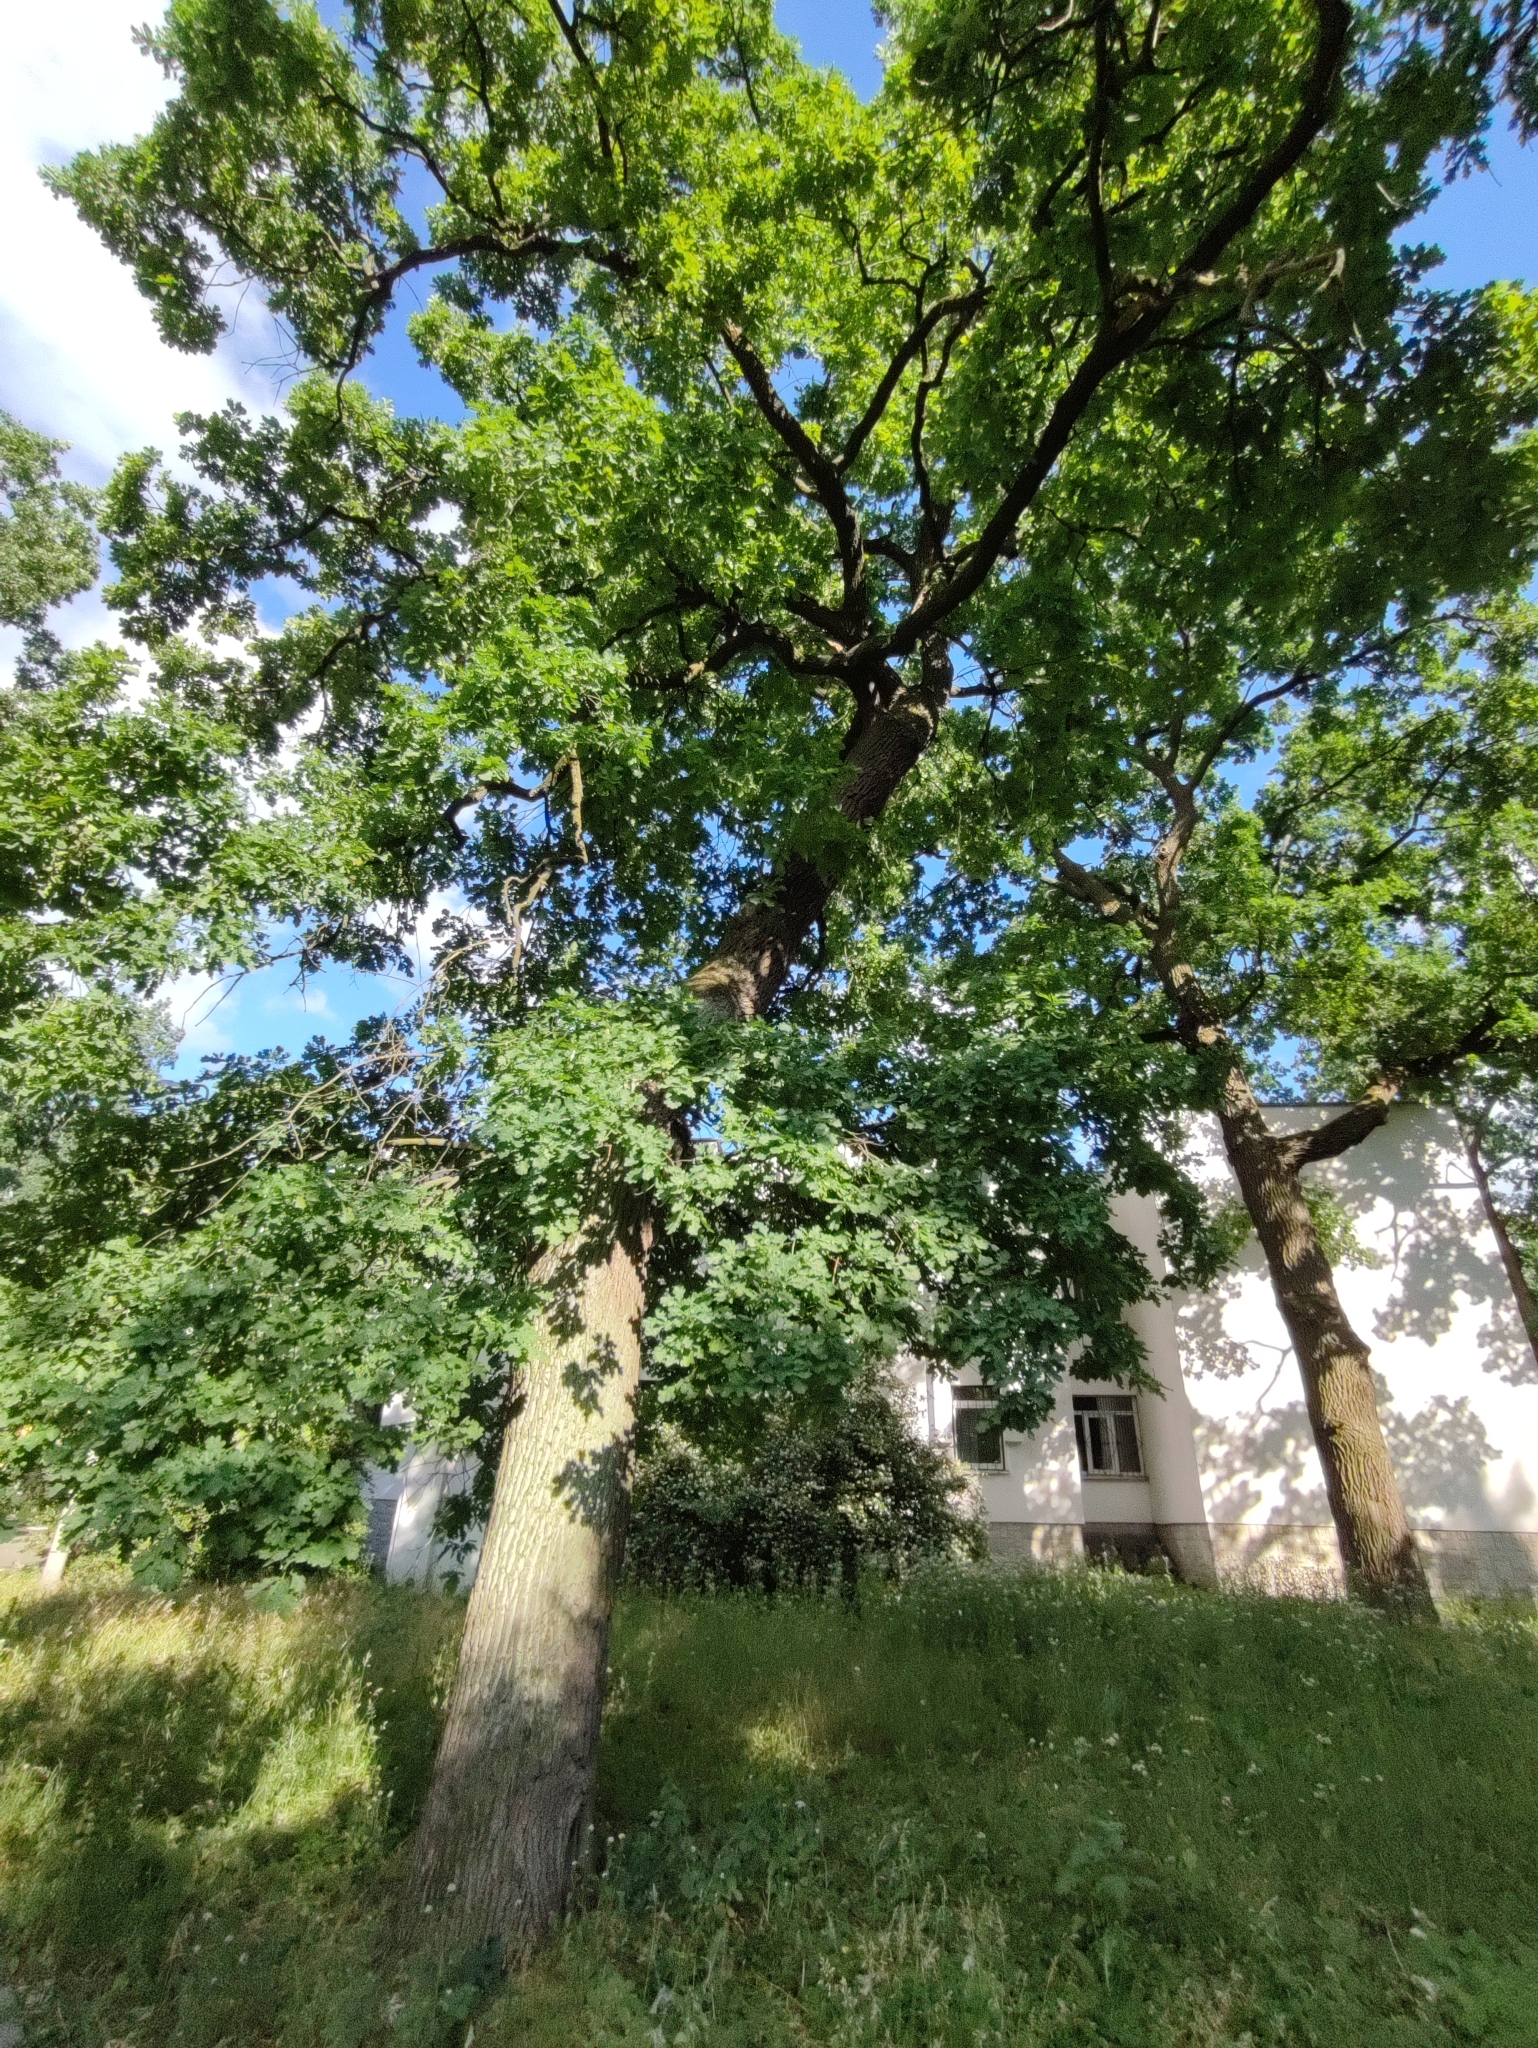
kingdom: Plantae
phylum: Tracheophyta
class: Magnoliopsida
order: Fagales
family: Fagaceae
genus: Quercus
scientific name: Quercus robur
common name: Pedunculate oak
